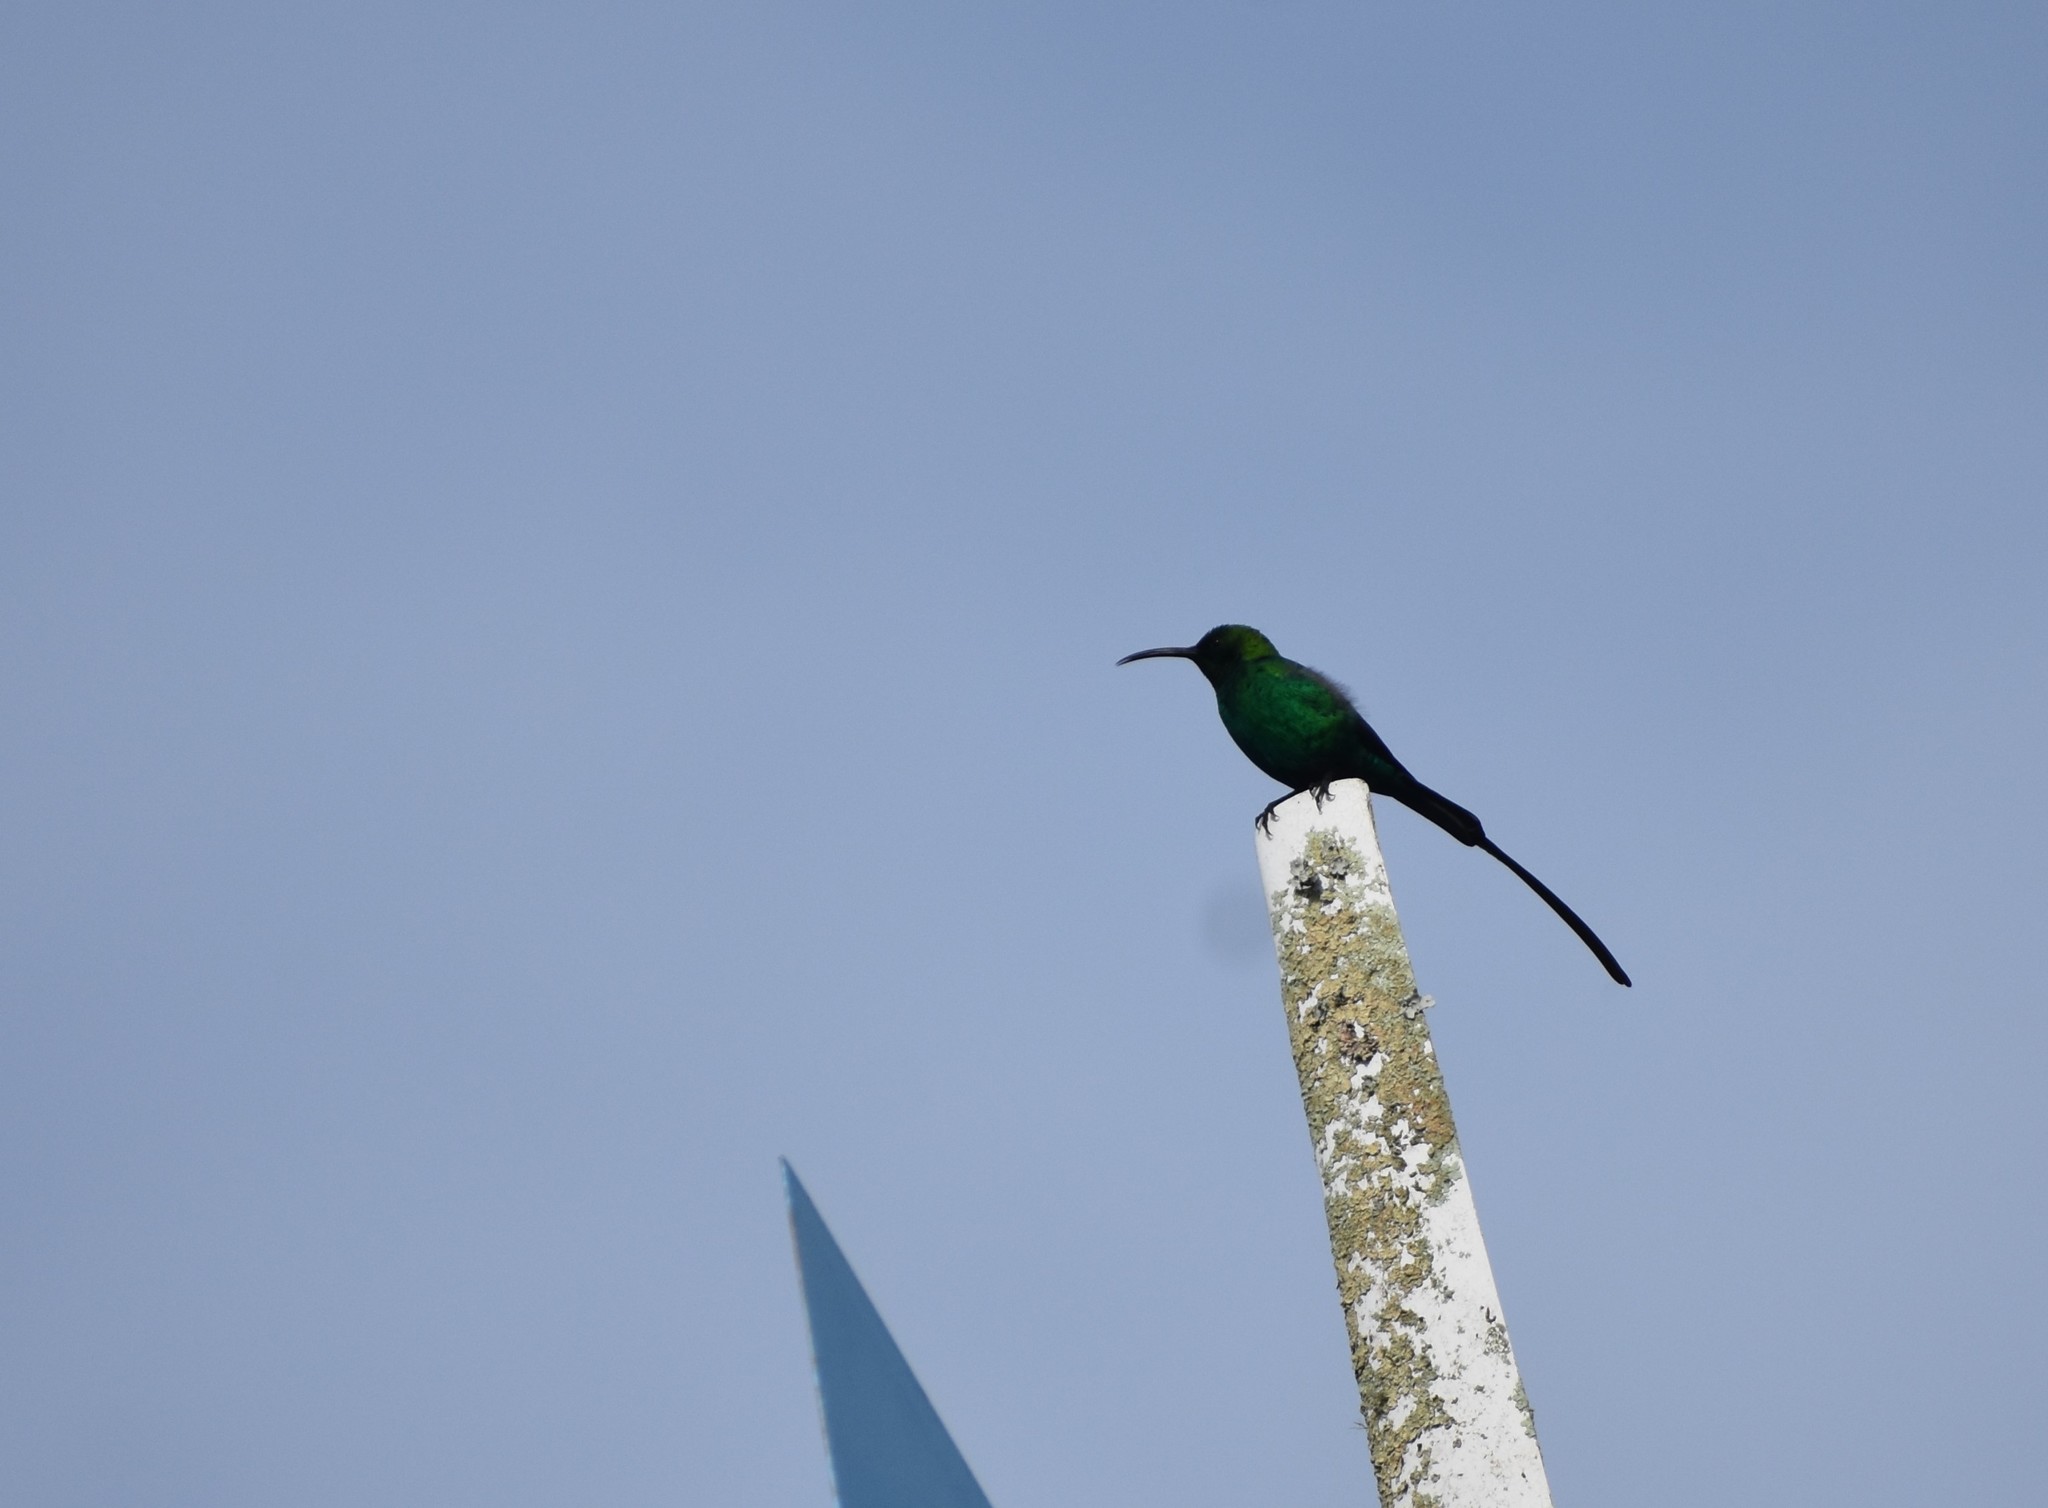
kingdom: Animalia
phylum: Chordata
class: Aves
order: Passeriformes
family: Nectariniidae
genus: Nectarinia
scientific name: Nectarinia famosa
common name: Malachite sunbird
